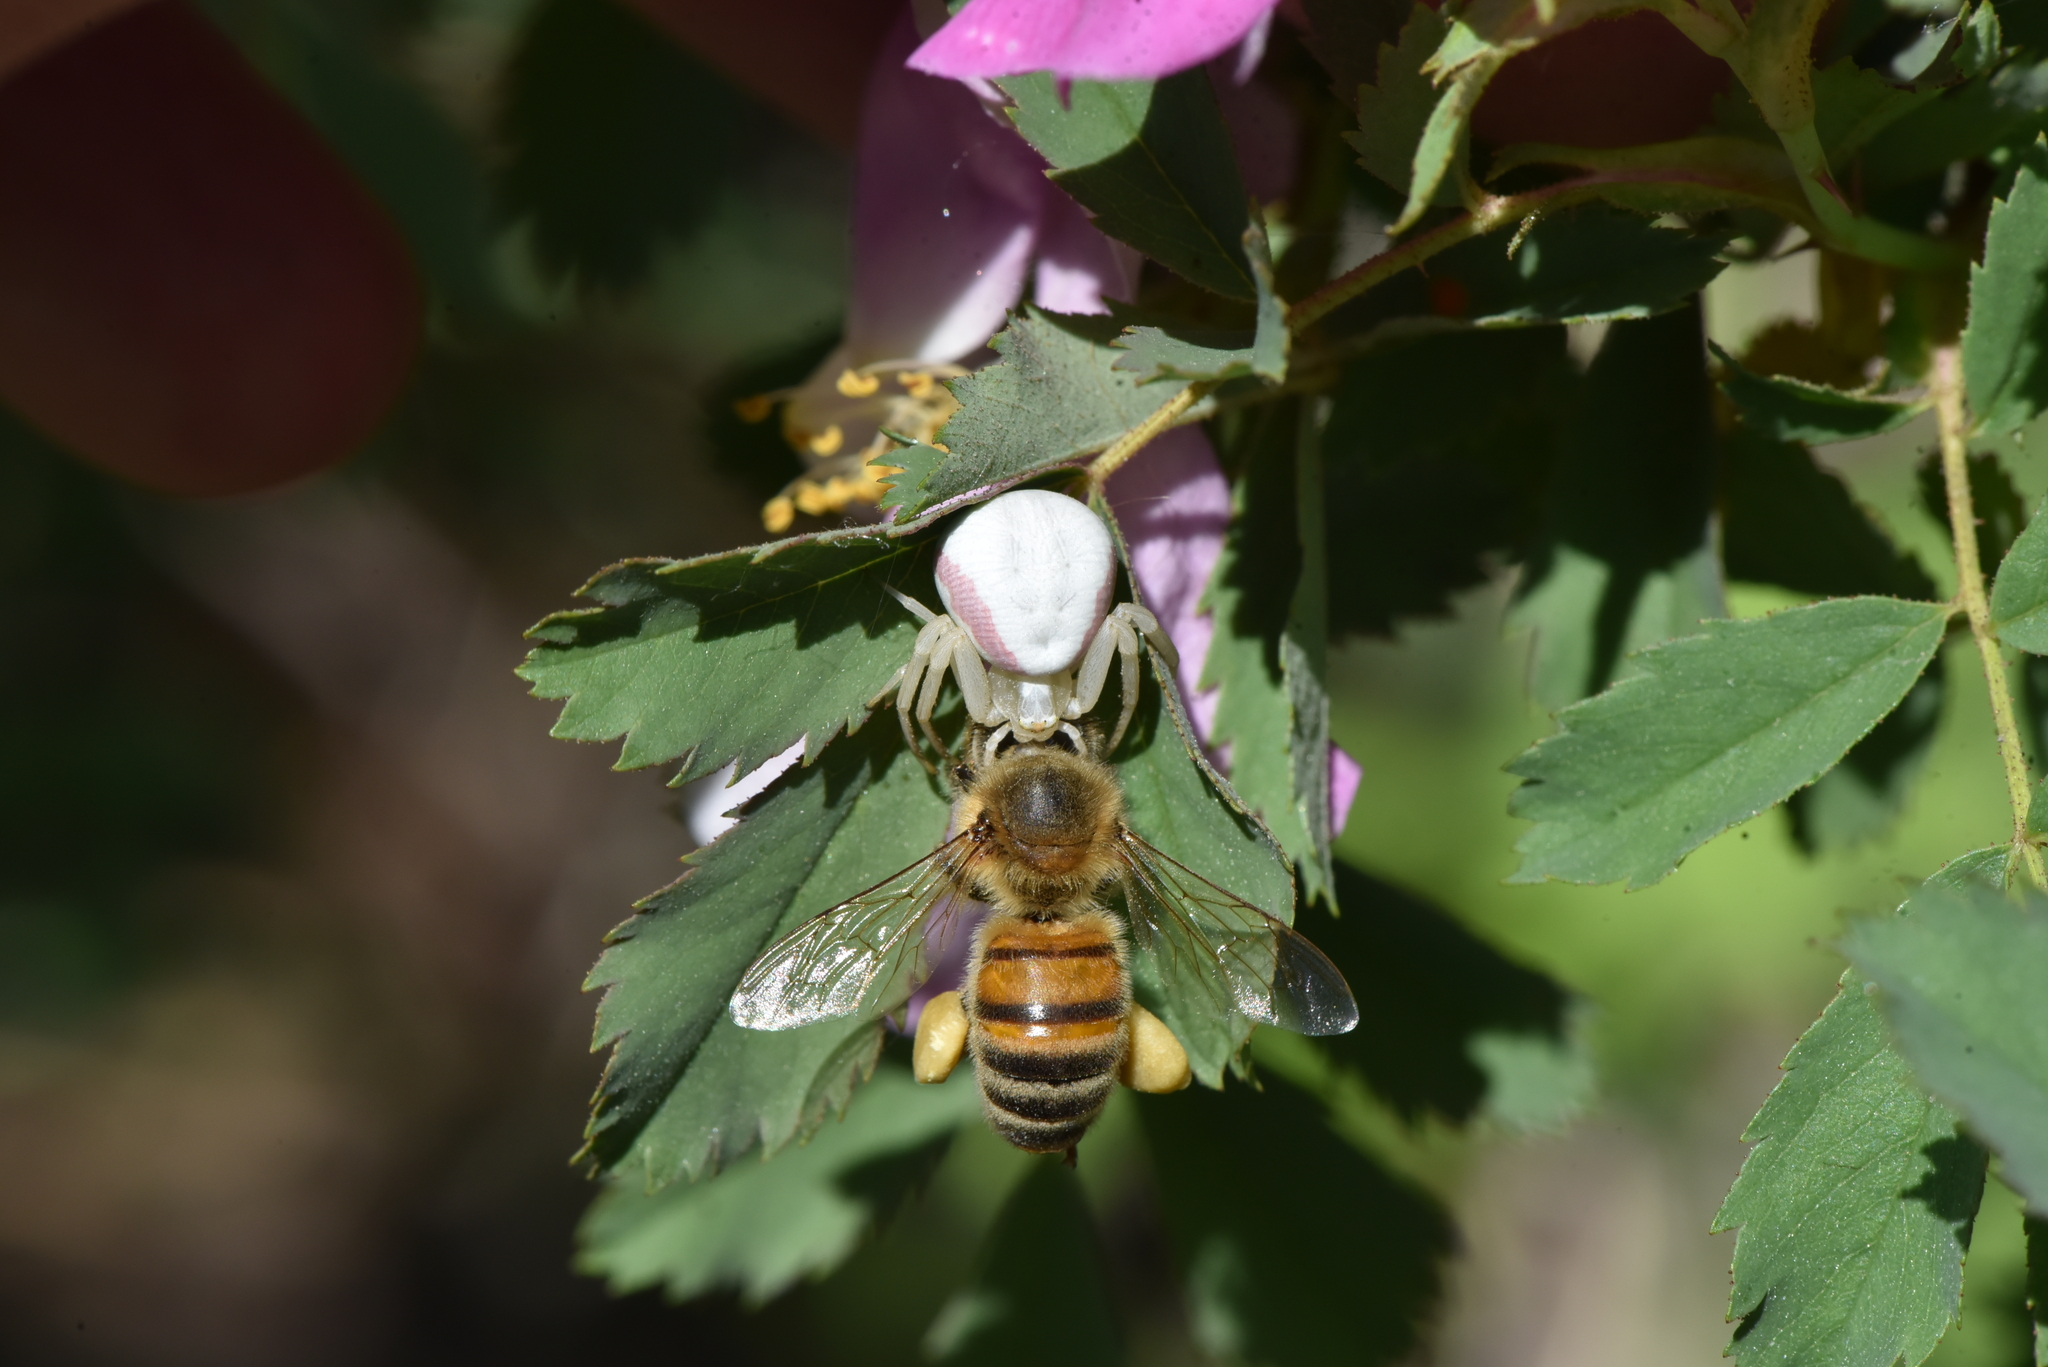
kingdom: Animalia
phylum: Arthropoda
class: Insecta
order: Hymenoptera
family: Apidae
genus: Apis
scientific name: Apis mellifera
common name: Honey bee
